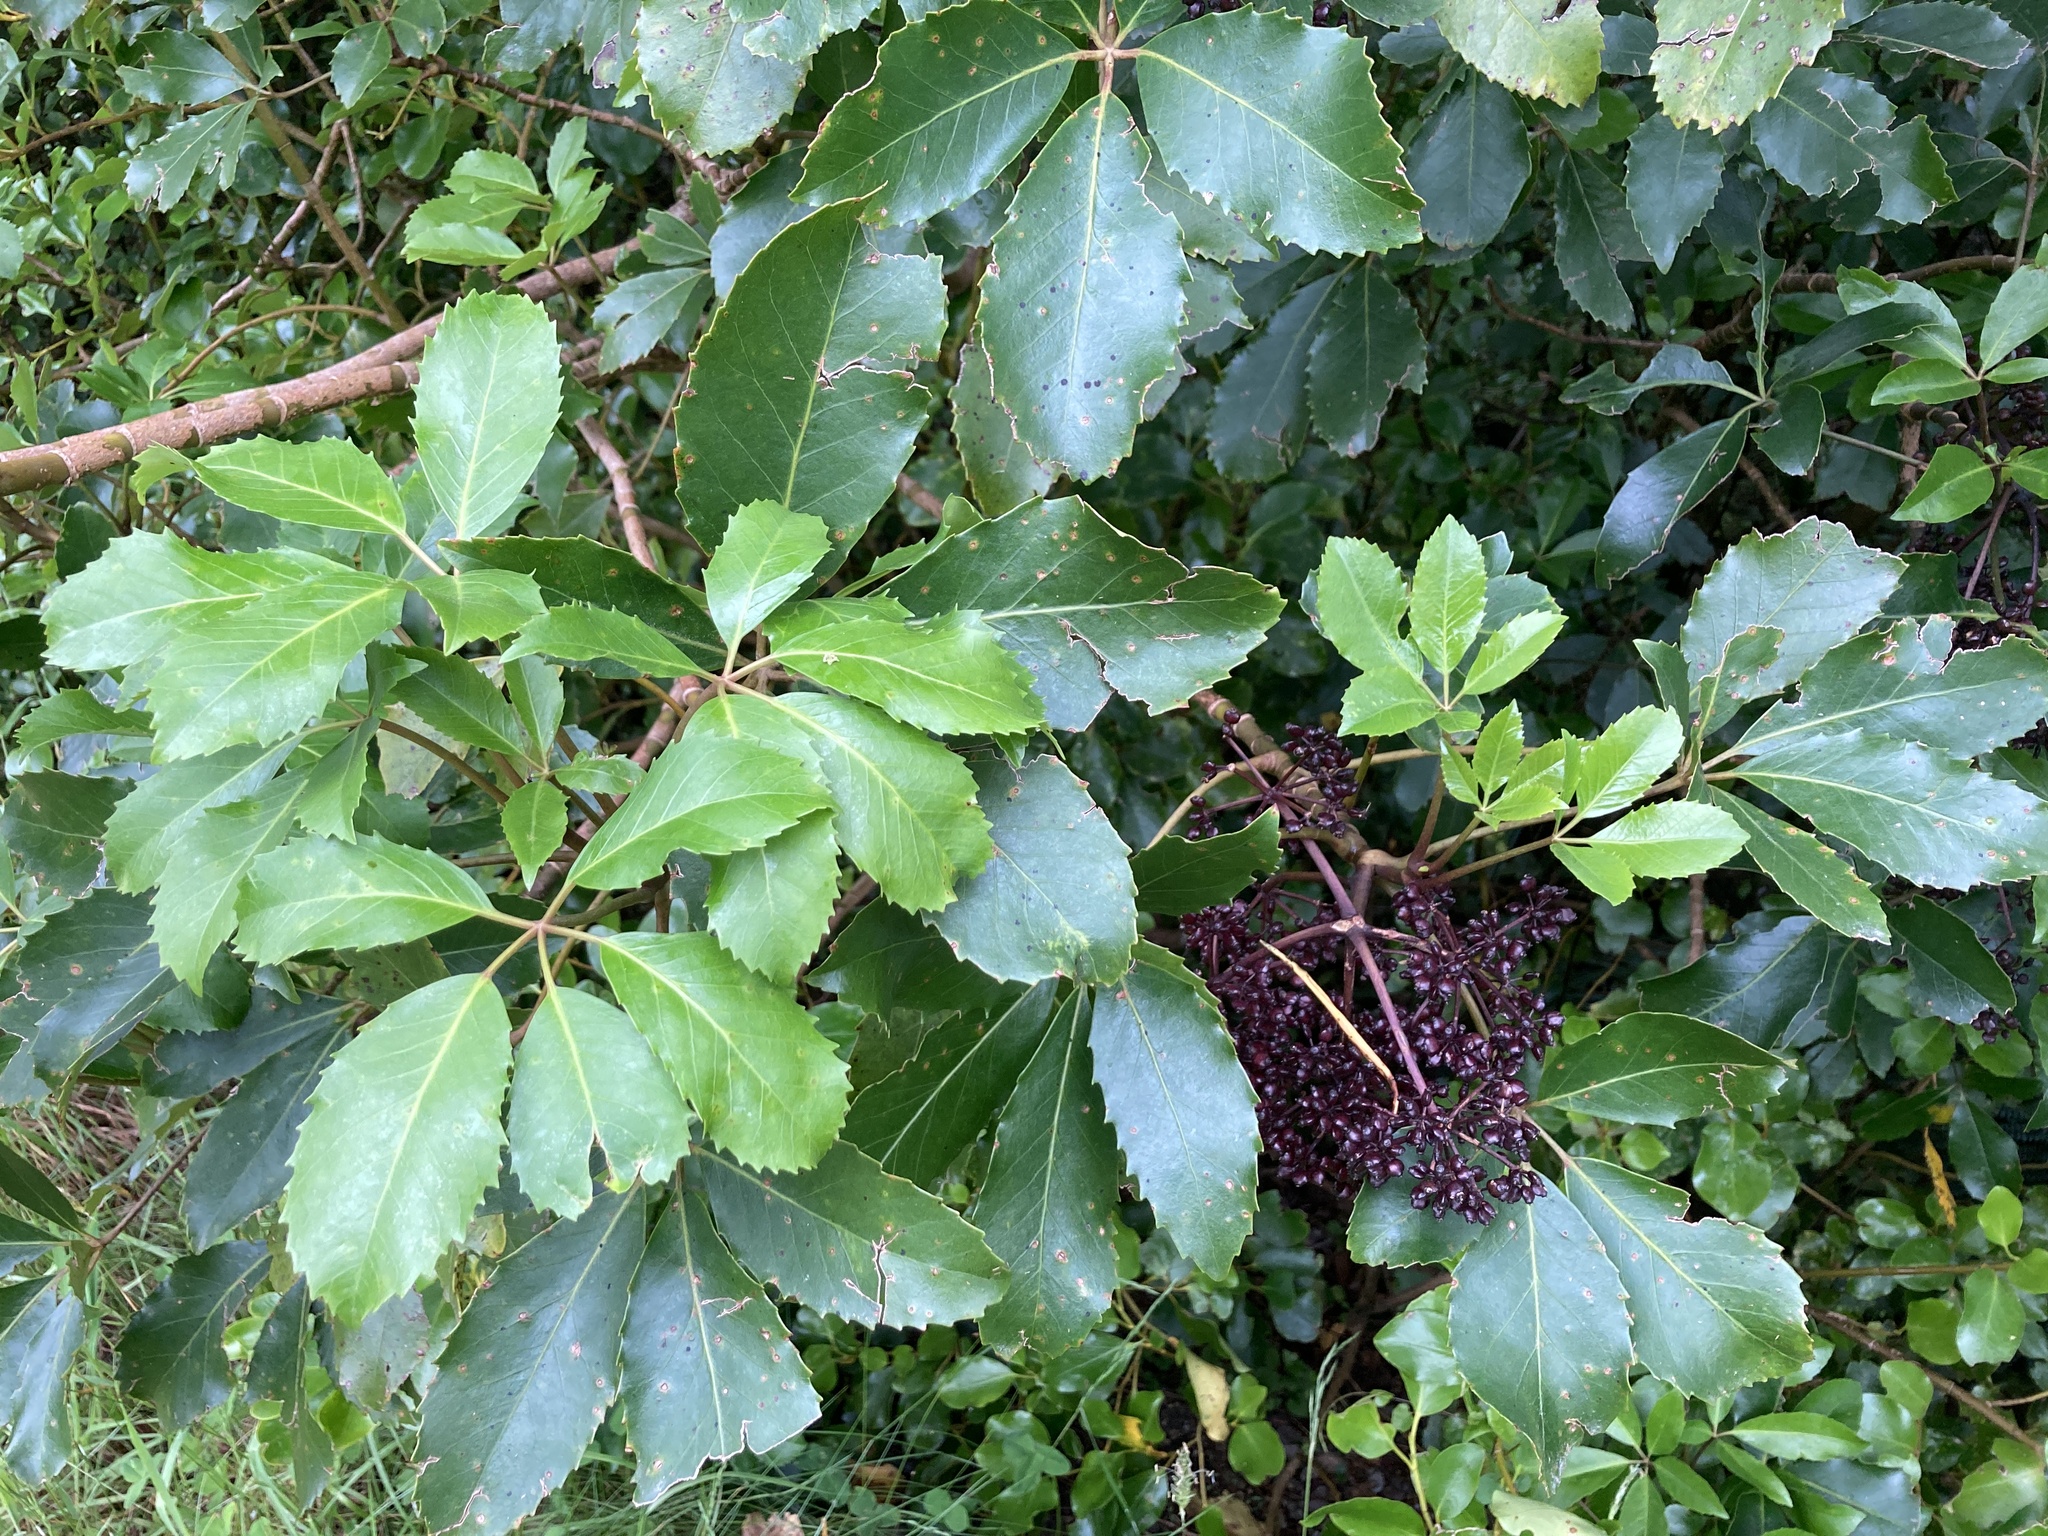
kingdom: Plantae
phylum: Tracheophyta
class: Magnoliopsida
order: Apiales
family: Araliaceae
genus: Neopanax
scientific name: Neopanax arboreus
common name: Five-fingers
